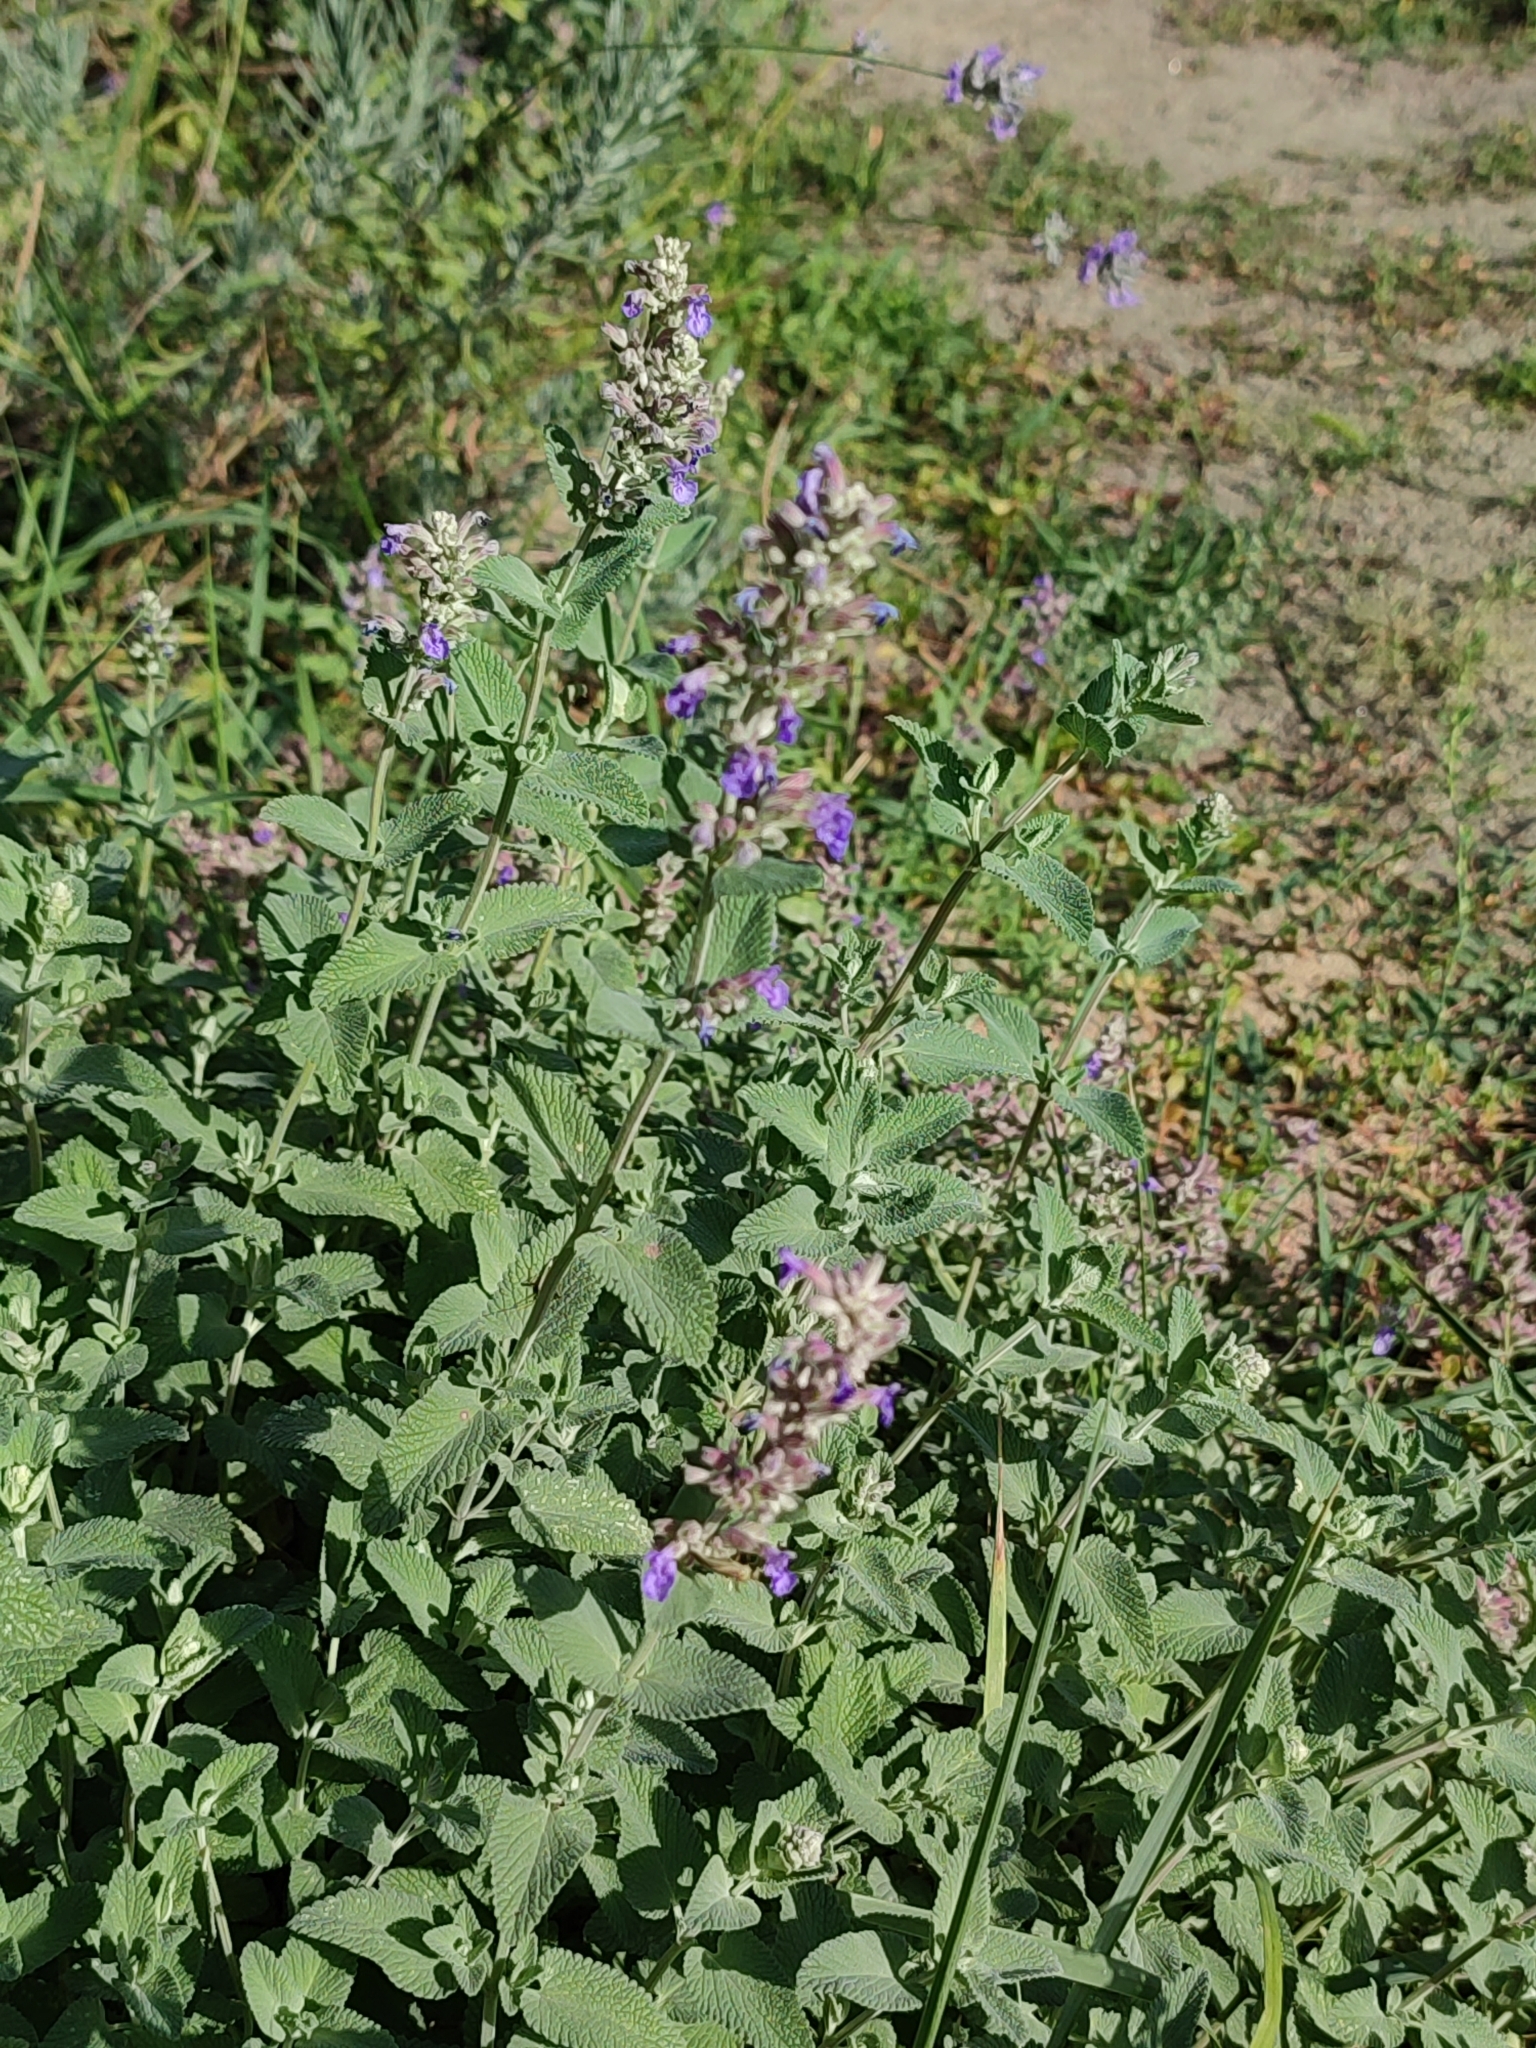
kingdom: Plantae
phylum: Tracheophyta
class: Magnoliopsida
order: Lamiales
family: Lamiaceae
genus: Nepeta
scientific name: Nepeta racemosa
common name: Raceme catnip
